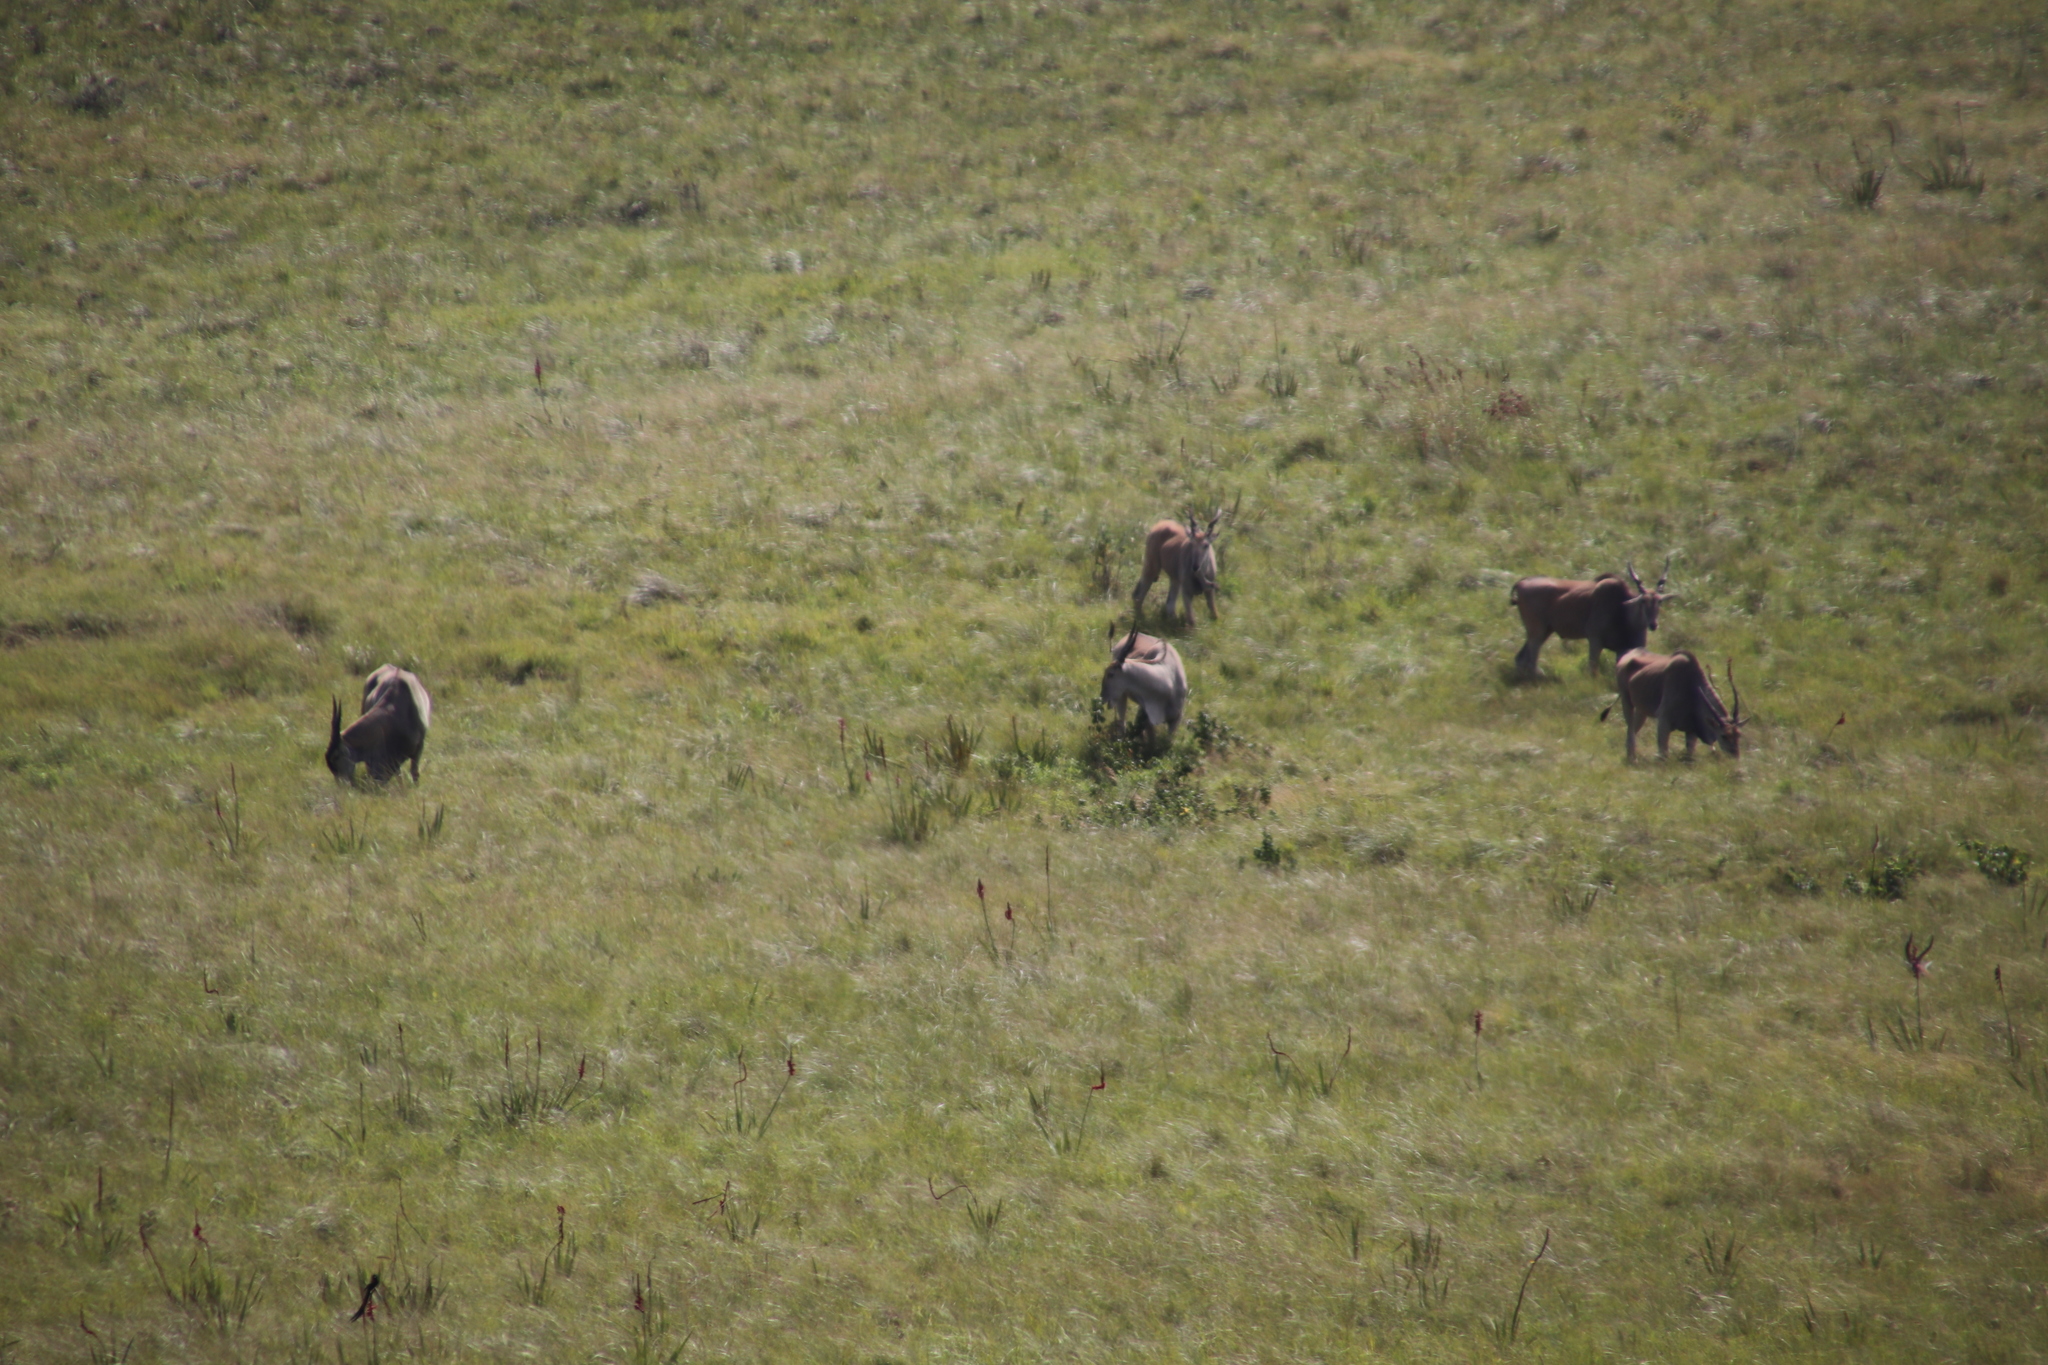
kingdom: Animalia
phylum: Chordata
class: Mammalia
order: Artiodactyla
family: Bovidae
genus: Taurotragus
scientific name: Taurotragus oryx
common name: Common eland
